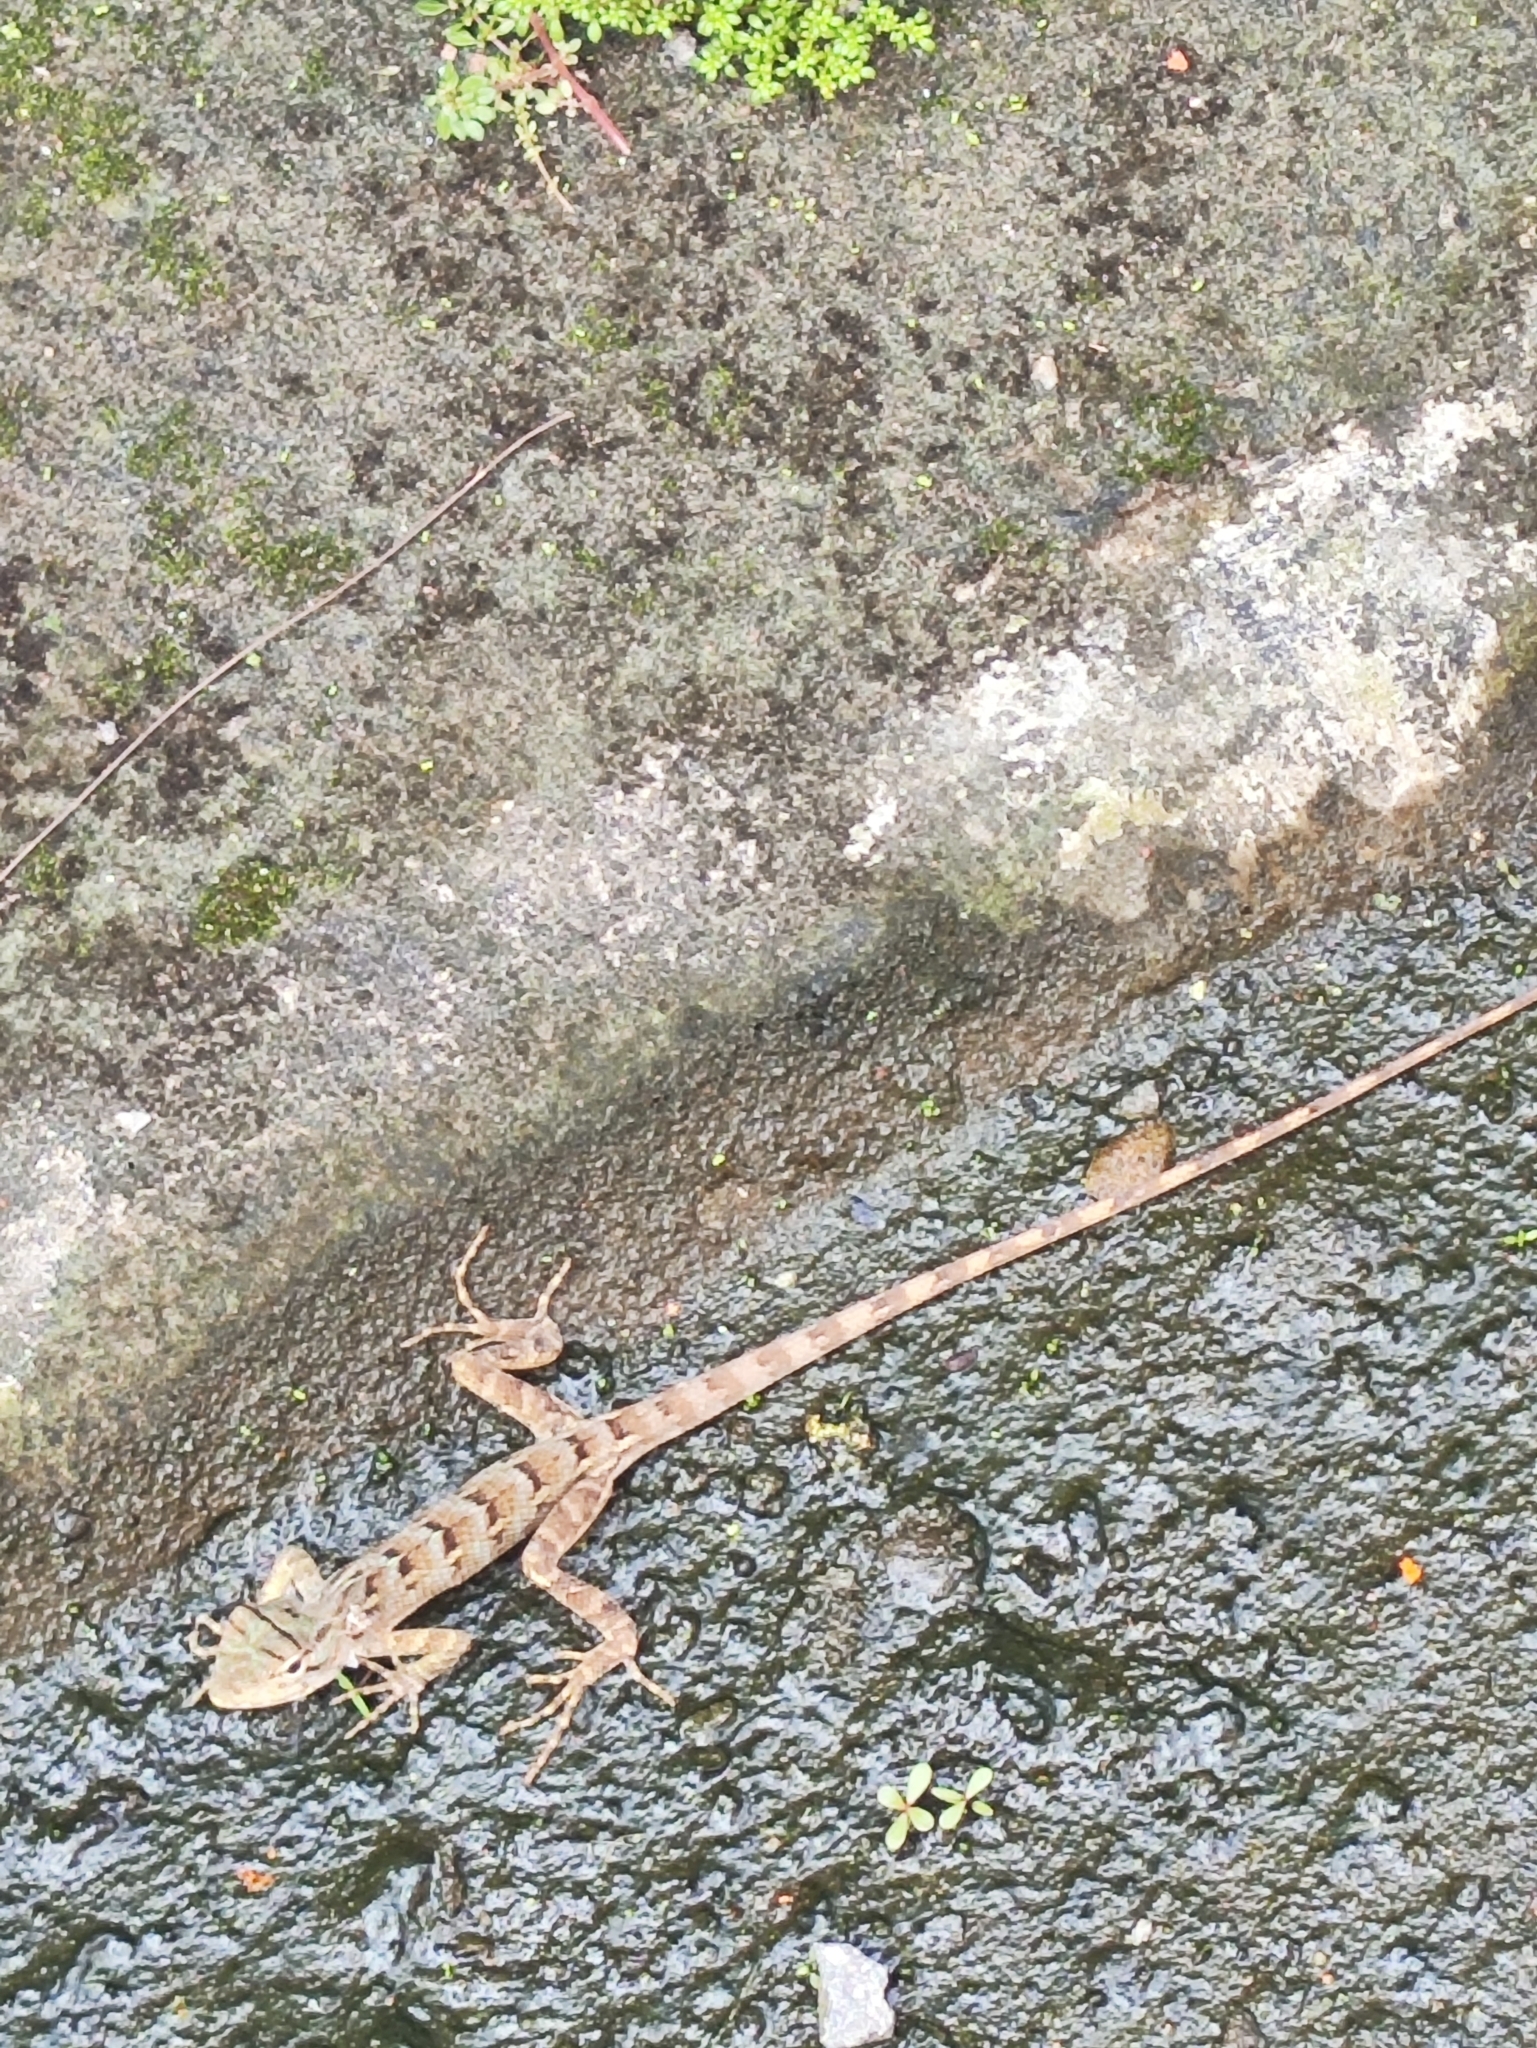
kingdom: Animalia
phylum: Chordata
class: Squamata
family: Agamidae
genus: Calotes
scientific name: Calotes versicolor
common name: Oriental garden lizard
